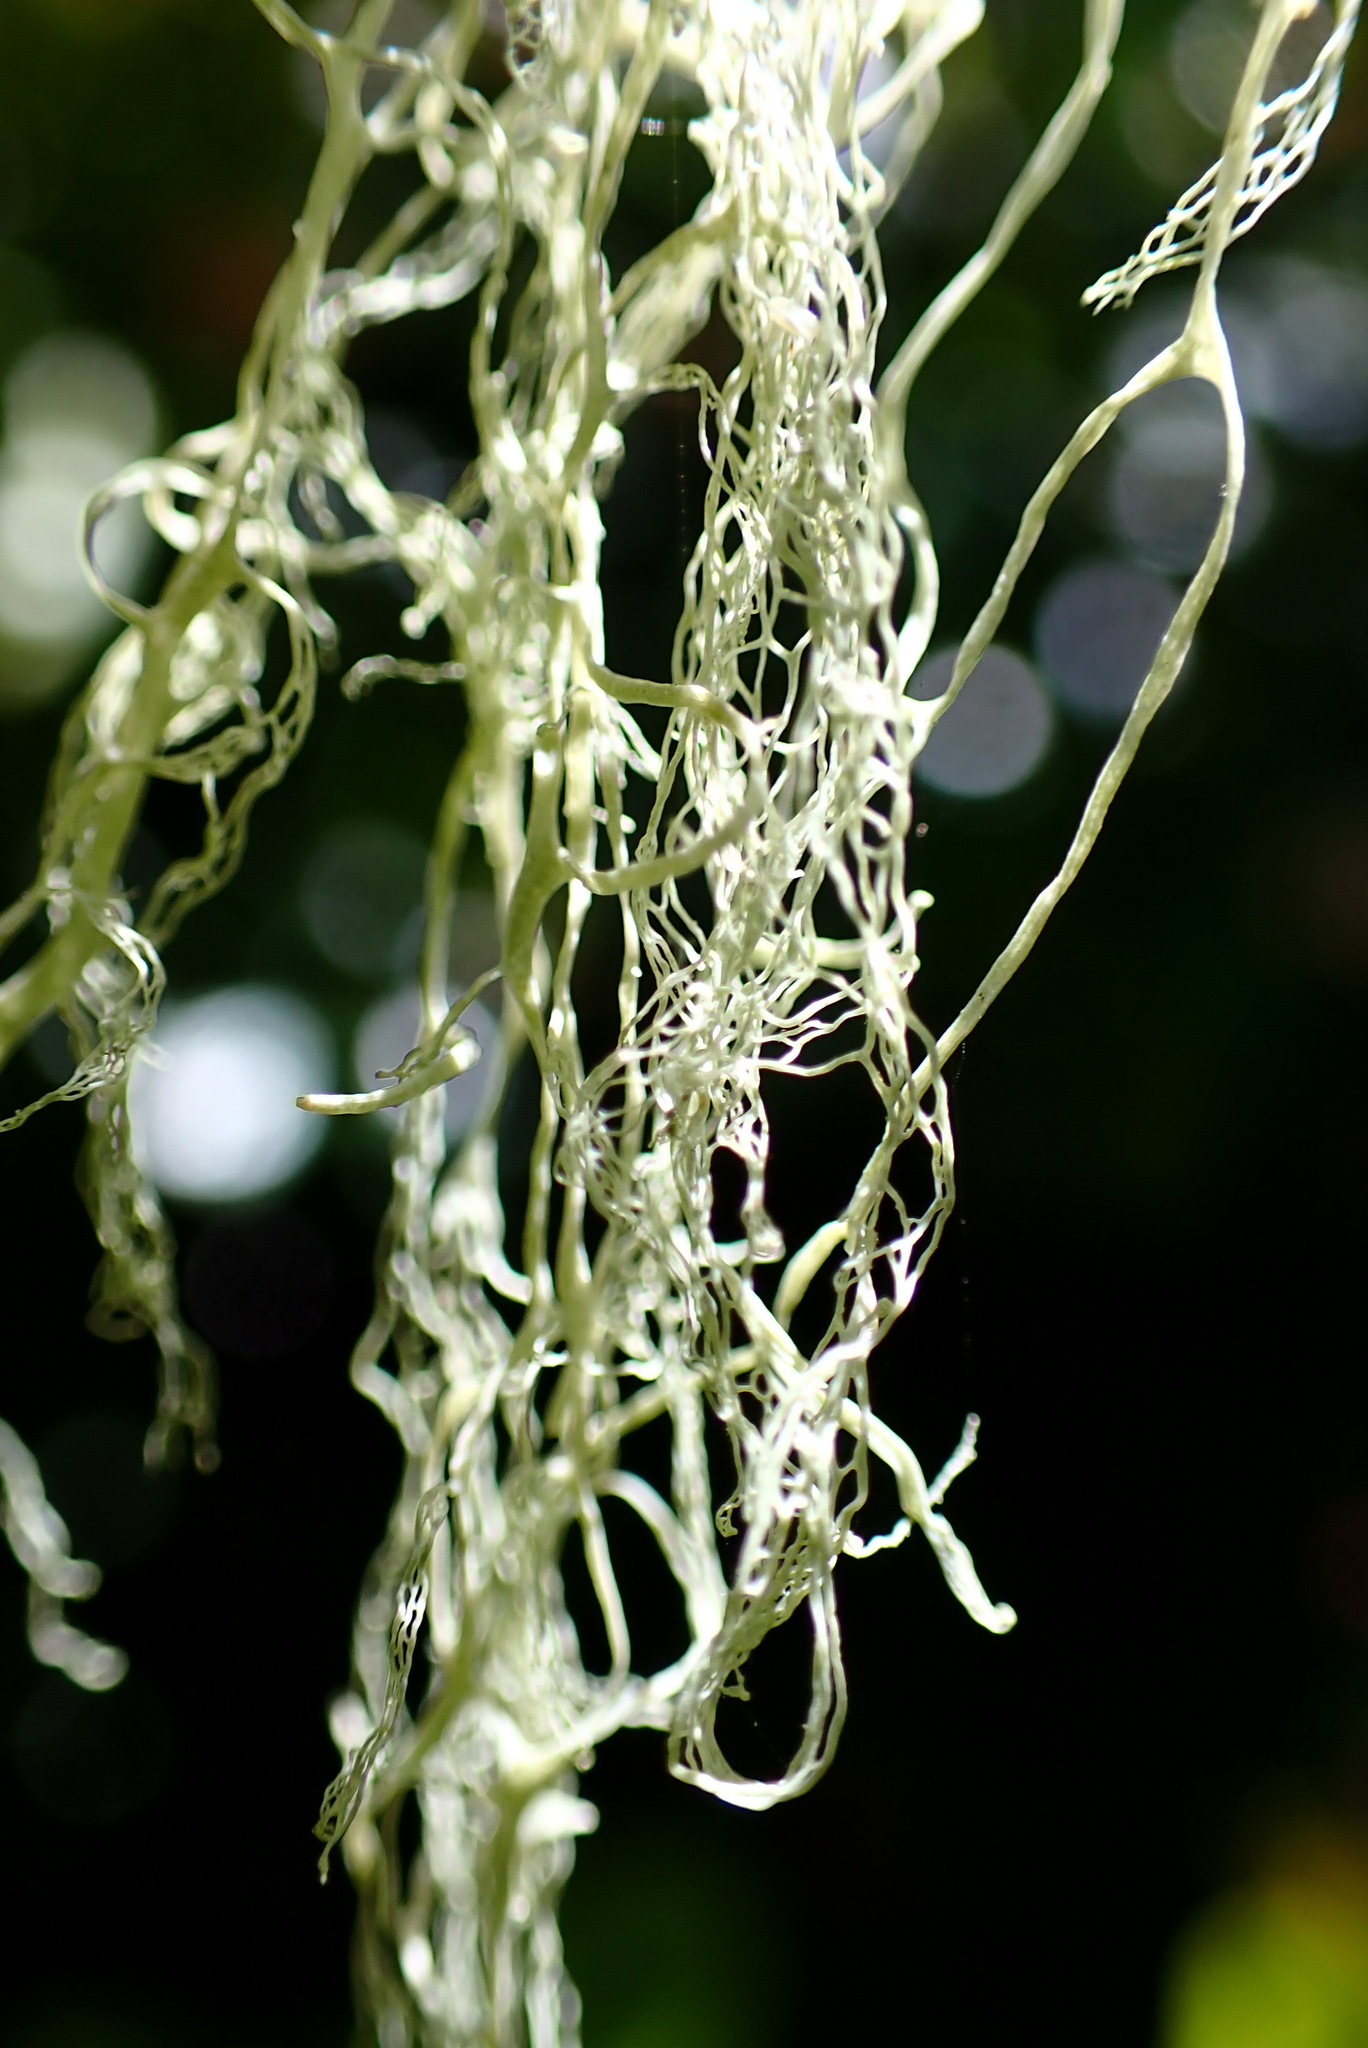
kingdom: Fungi
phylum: Ascomycota
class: Lecanoromycetes
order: Lecanorales
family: Ramalinaceae
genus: Ramalina
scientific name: Ramalina menziesii
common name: Lace lichen
